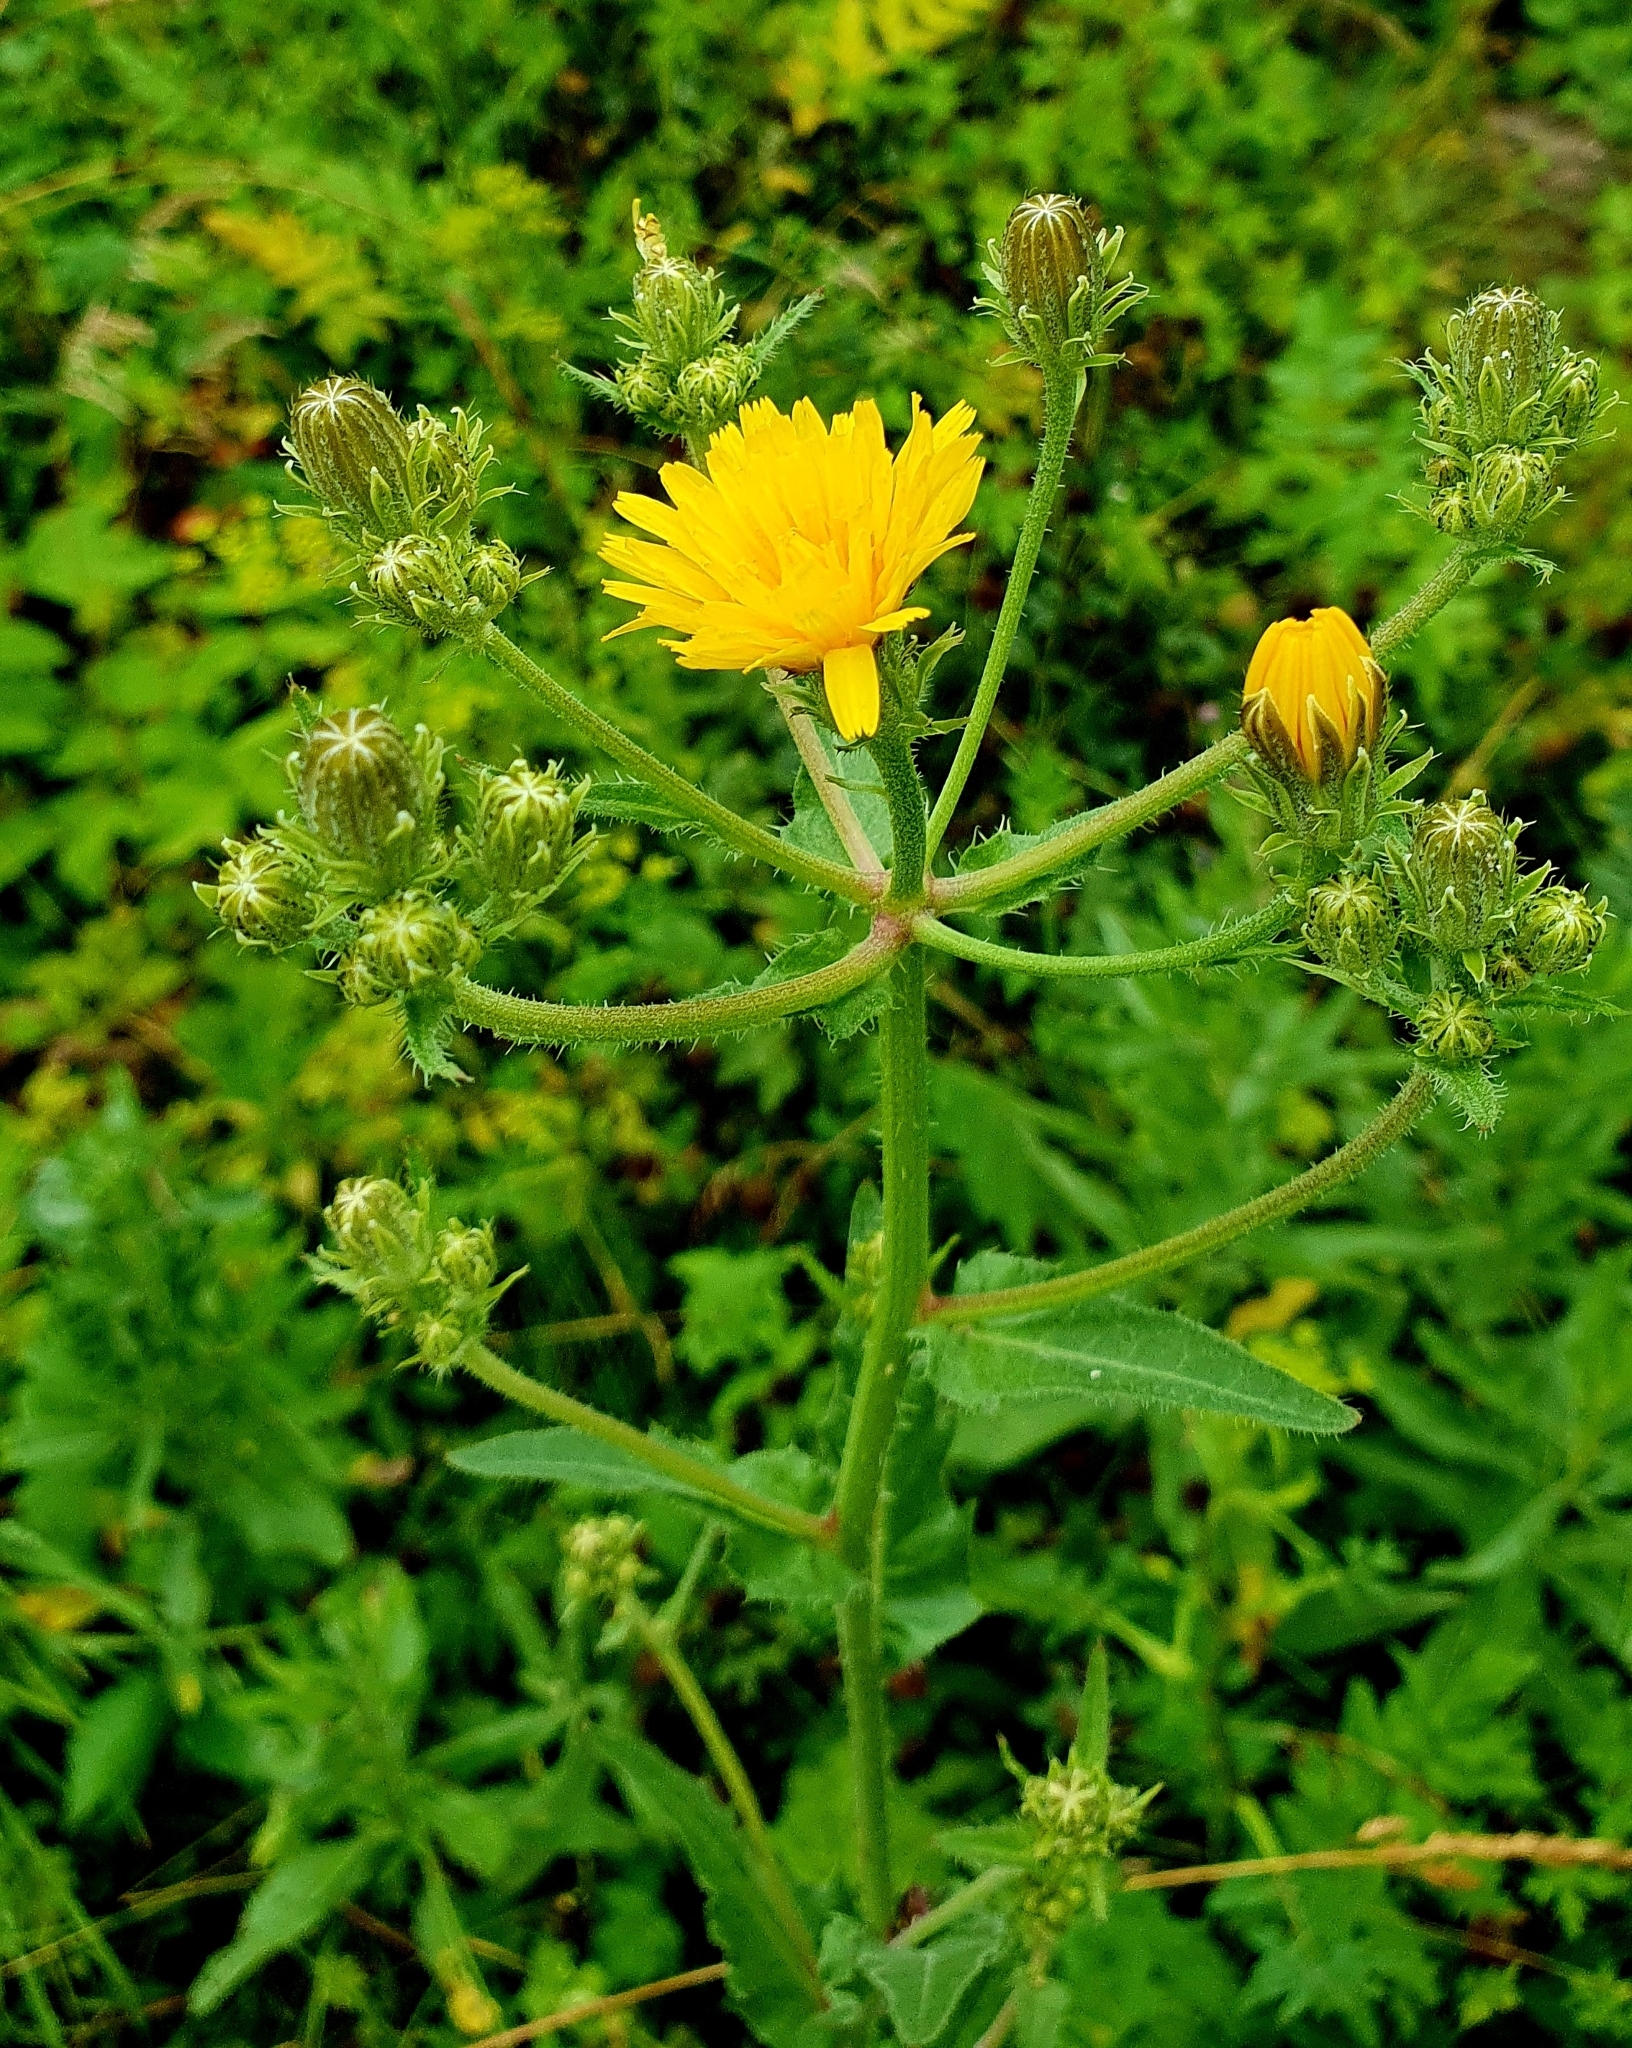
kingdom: Plantae
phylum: Tracheophyta
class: Magnoliopsida
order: Asterales
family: Asteraceae
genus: Picris
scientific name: Picris hieracioides
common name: Hawkweed oxtongue
